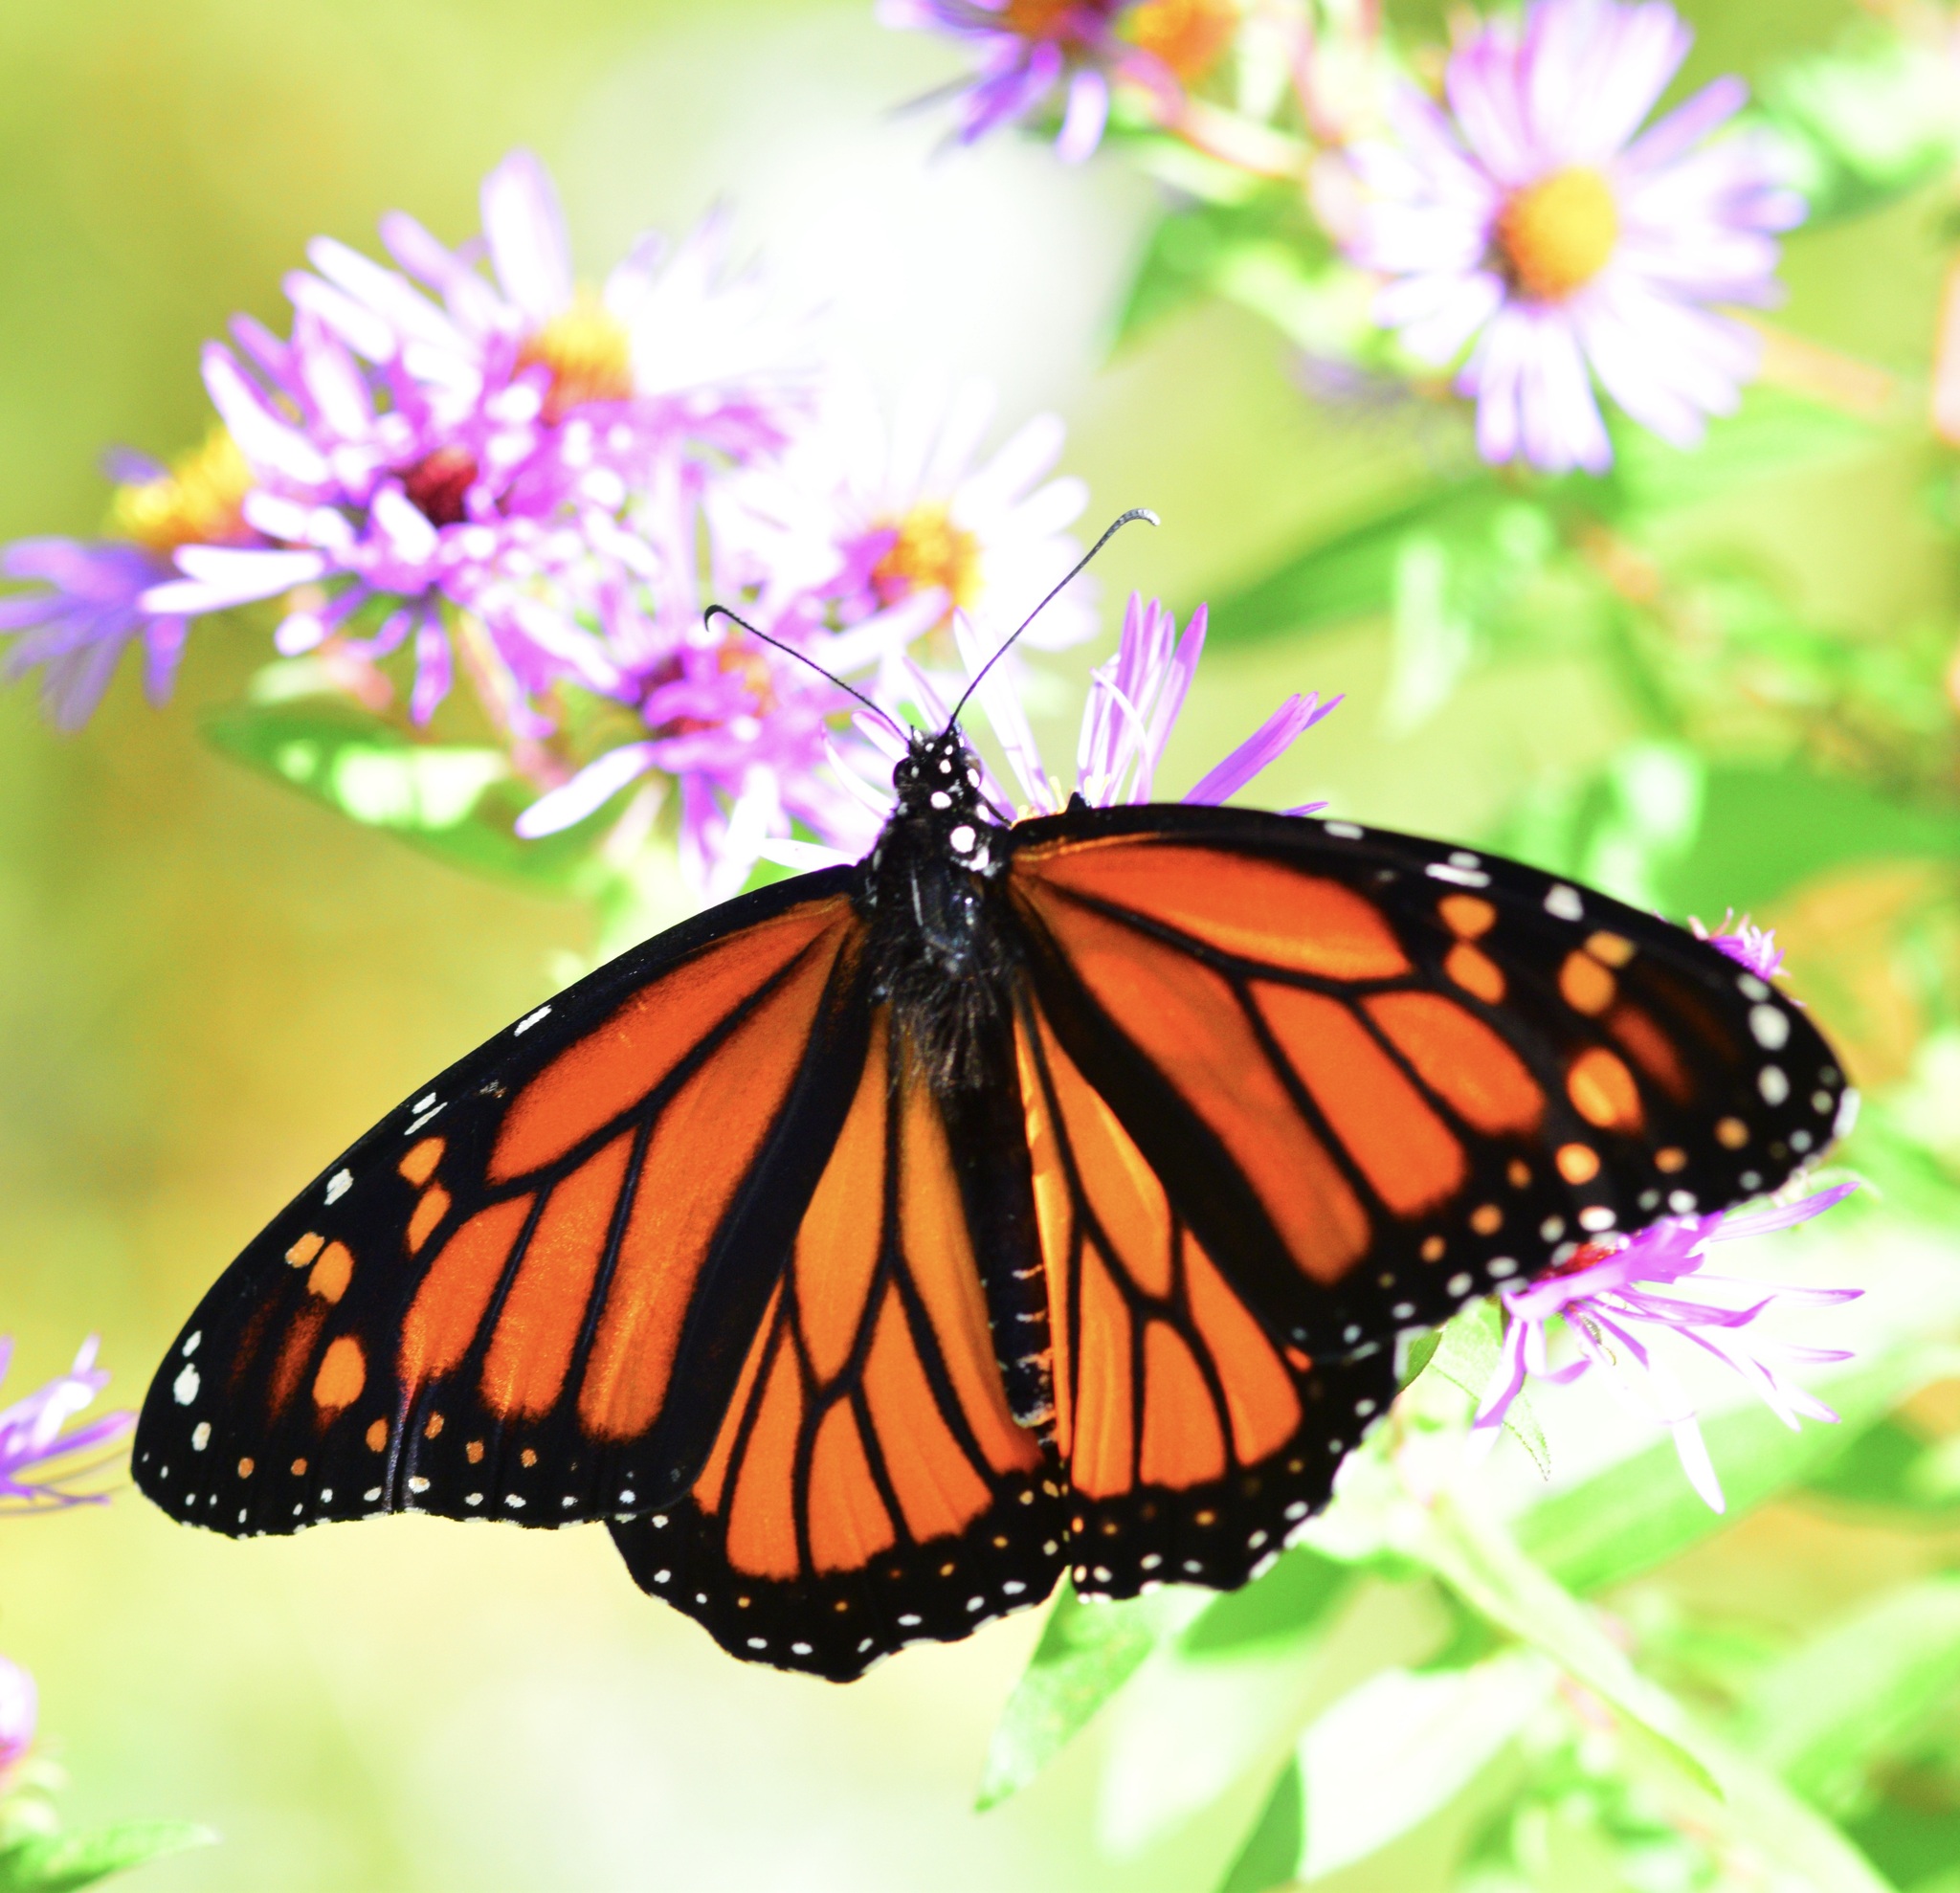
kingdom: Animalia
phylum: Arthropoda
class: Insecta
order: Lepidoptera
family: Nymphalidae
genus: Danaus
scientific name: Danaus plexippus
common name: Monarch
